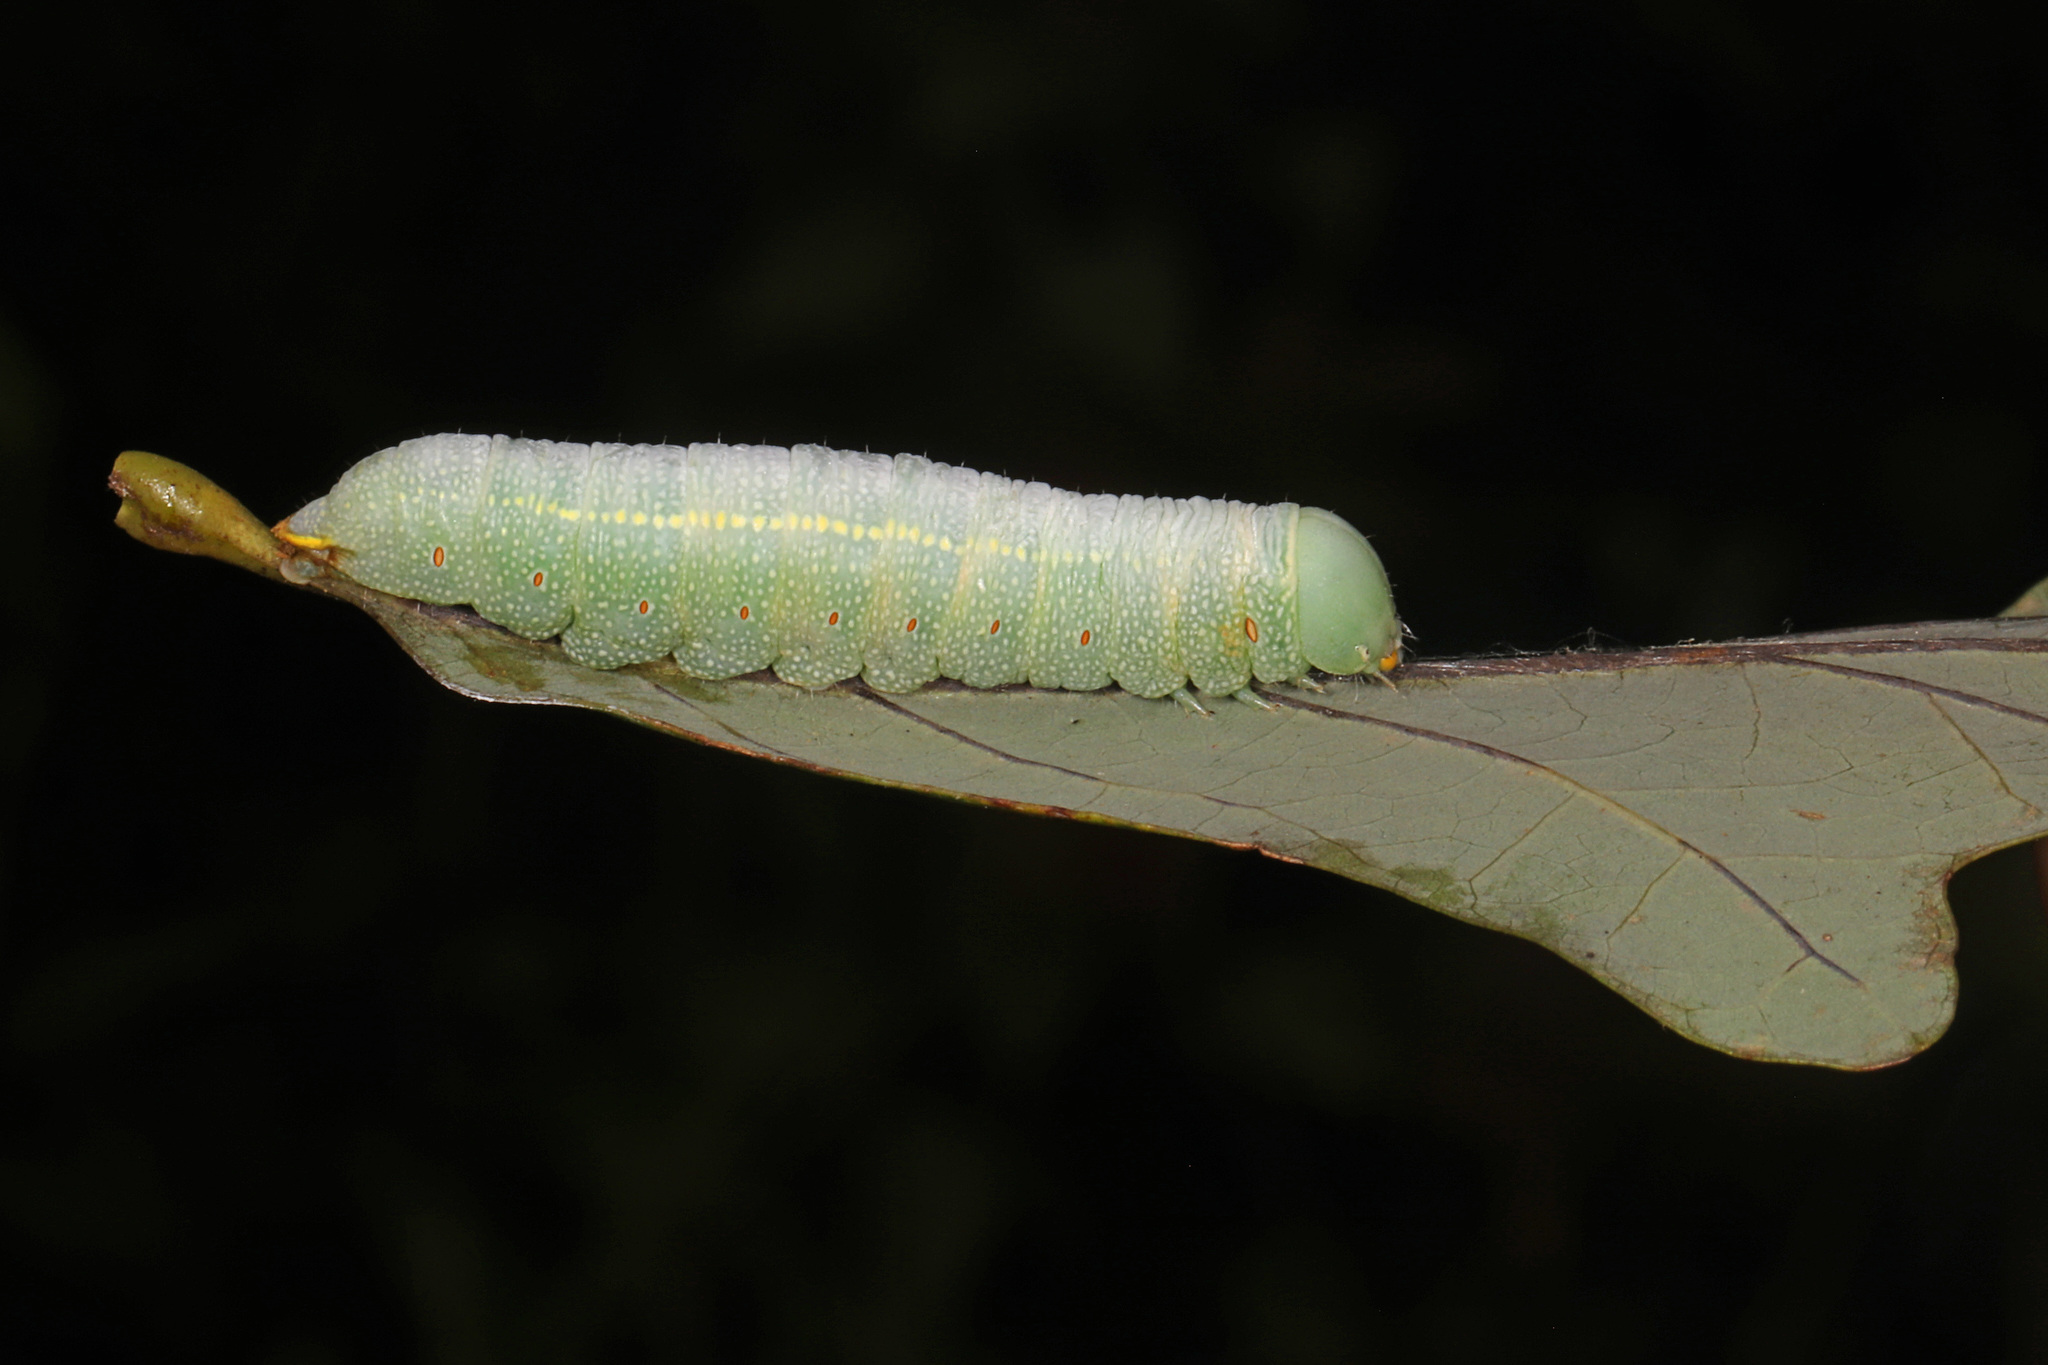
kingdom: Animalia
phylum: Arthropoda
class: Insecta
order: Lepidoptera
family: Notodontidae
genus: Nadata
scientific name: Nadata gibbosa
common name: White-dotted prominent
